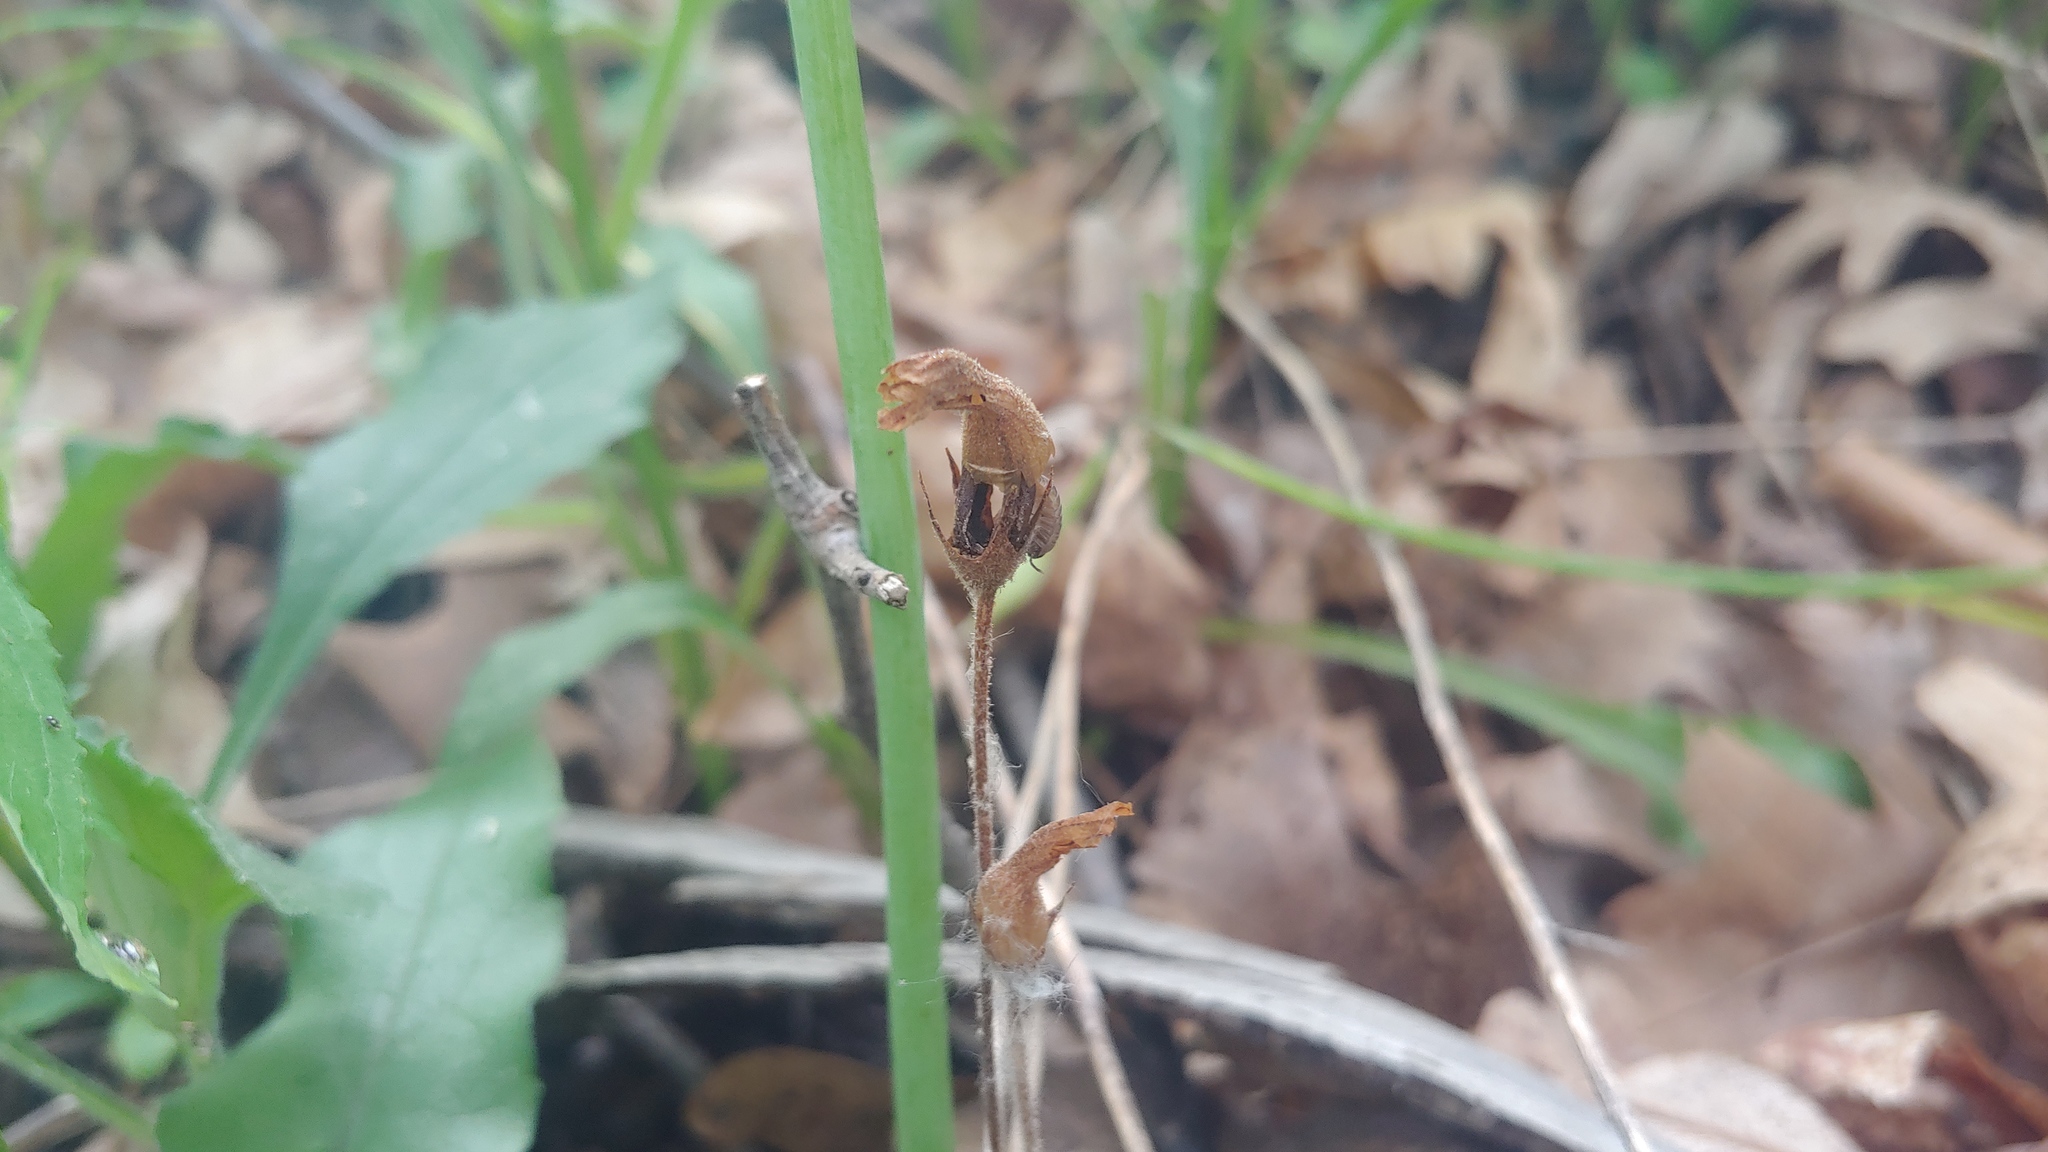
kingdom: Plantae
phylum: Tracheophyta
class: Magnoliopsida
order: Lamiales
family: Orobanchaceae
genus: Aphyllon
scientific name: Aphyllon uniflorum
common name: One-flowered broomrape
